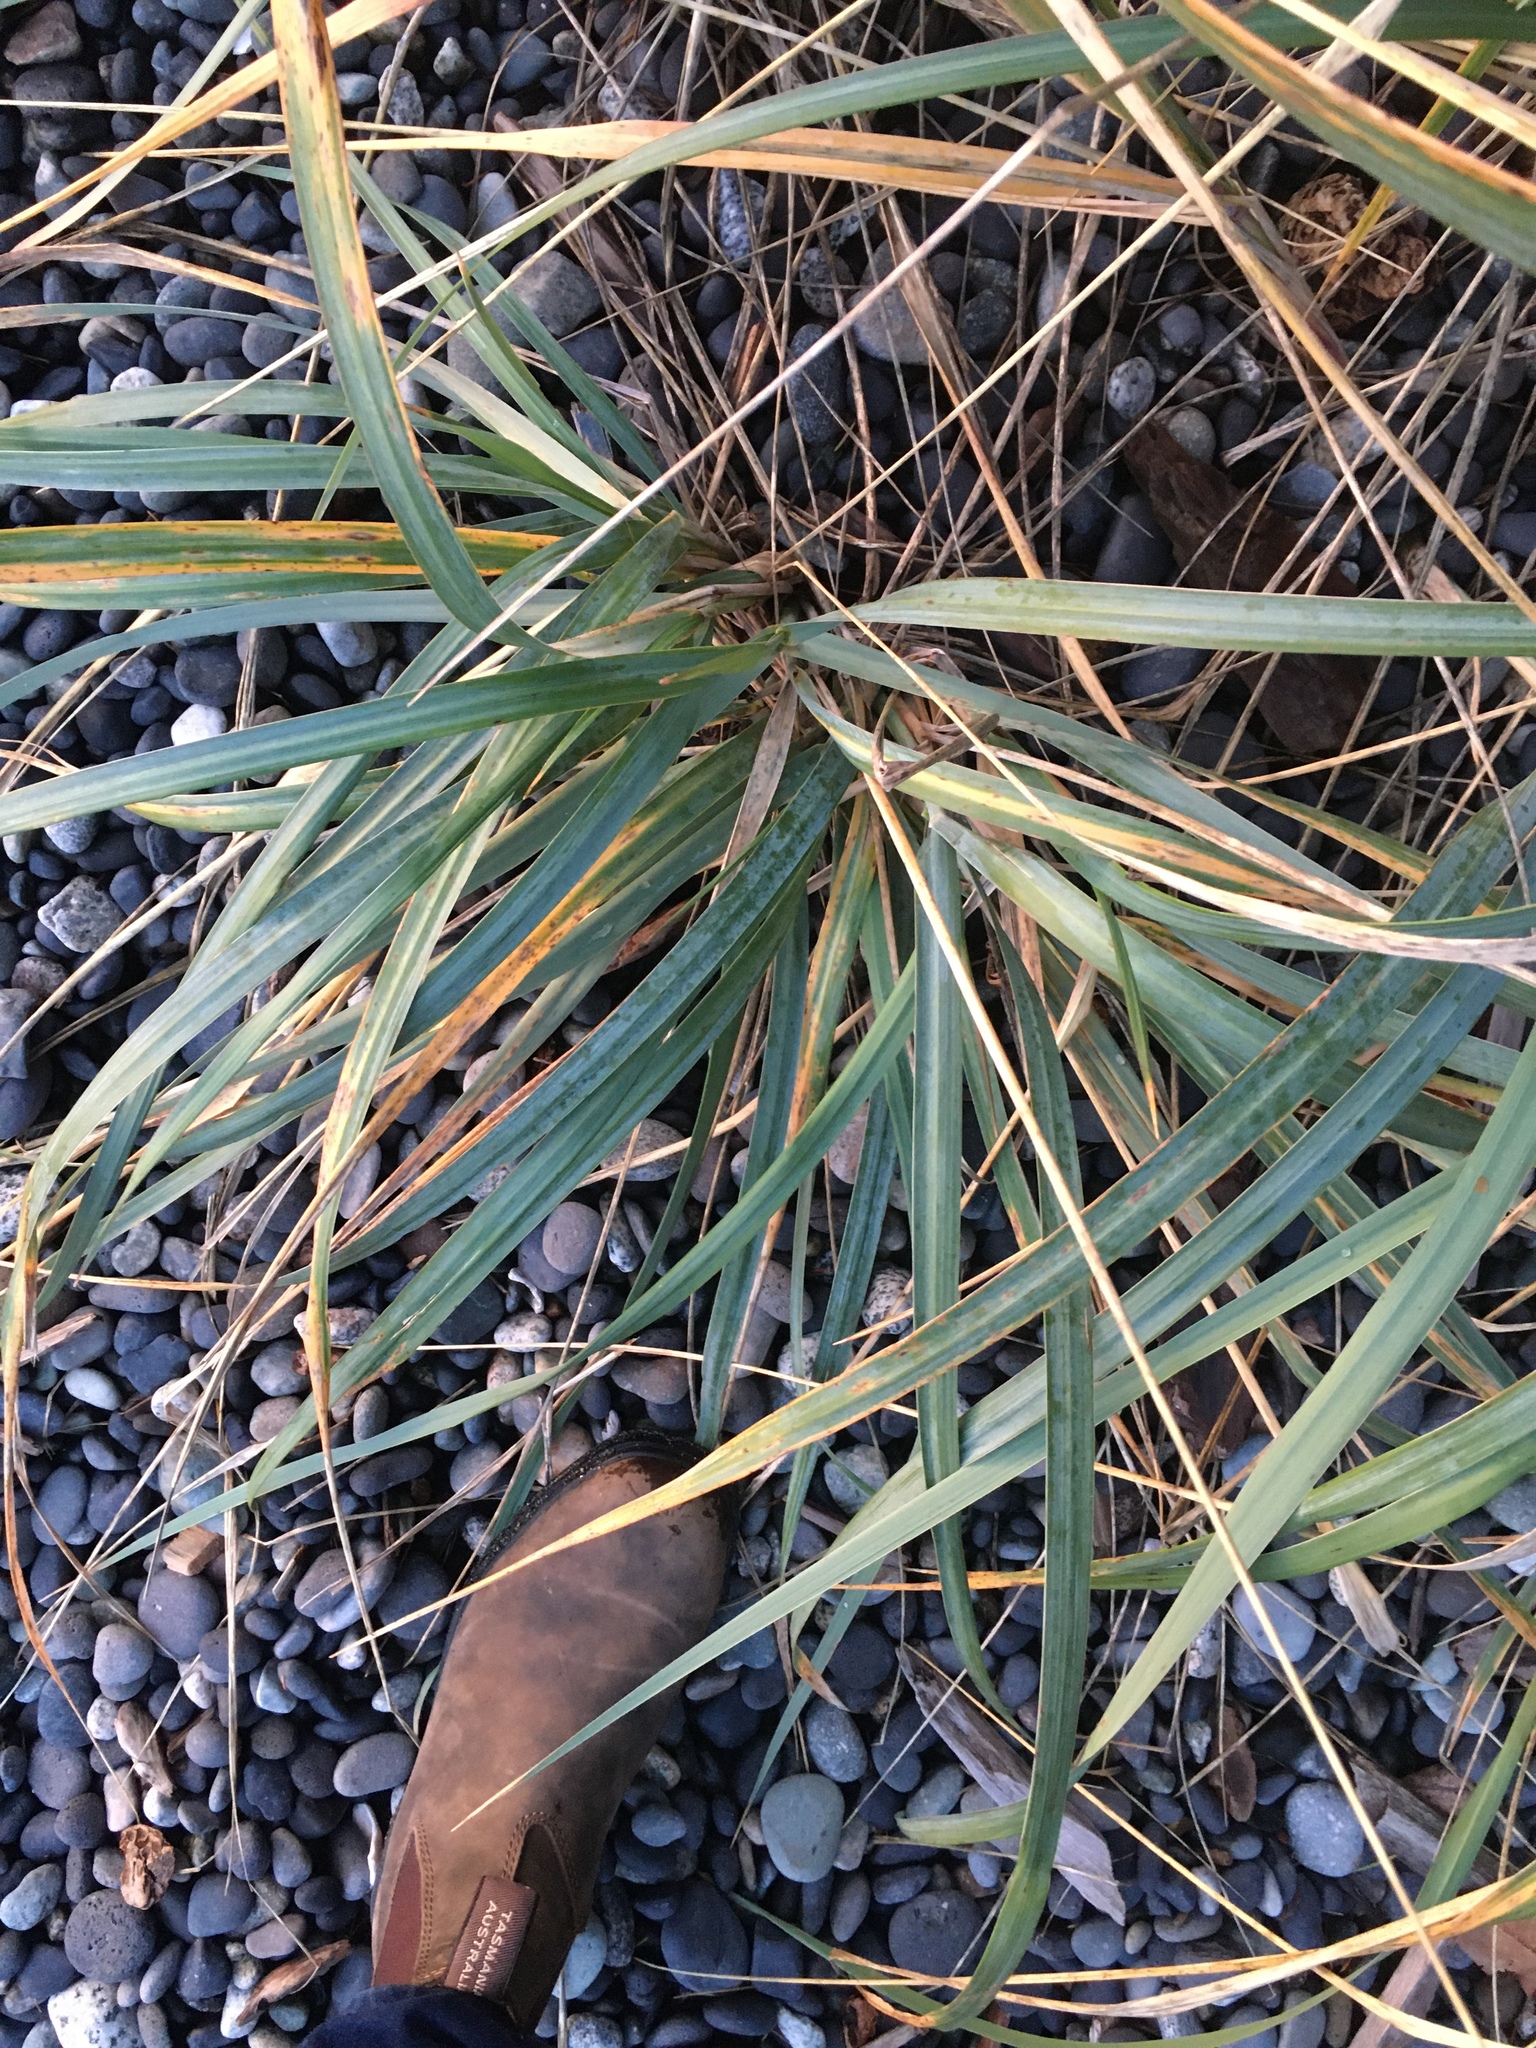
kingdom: Plantae
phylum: Tracheophyta
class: Liliopsida
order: Poales
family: Poaceae
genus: Leymus
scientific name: Leymus mollis
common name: American dune grass
